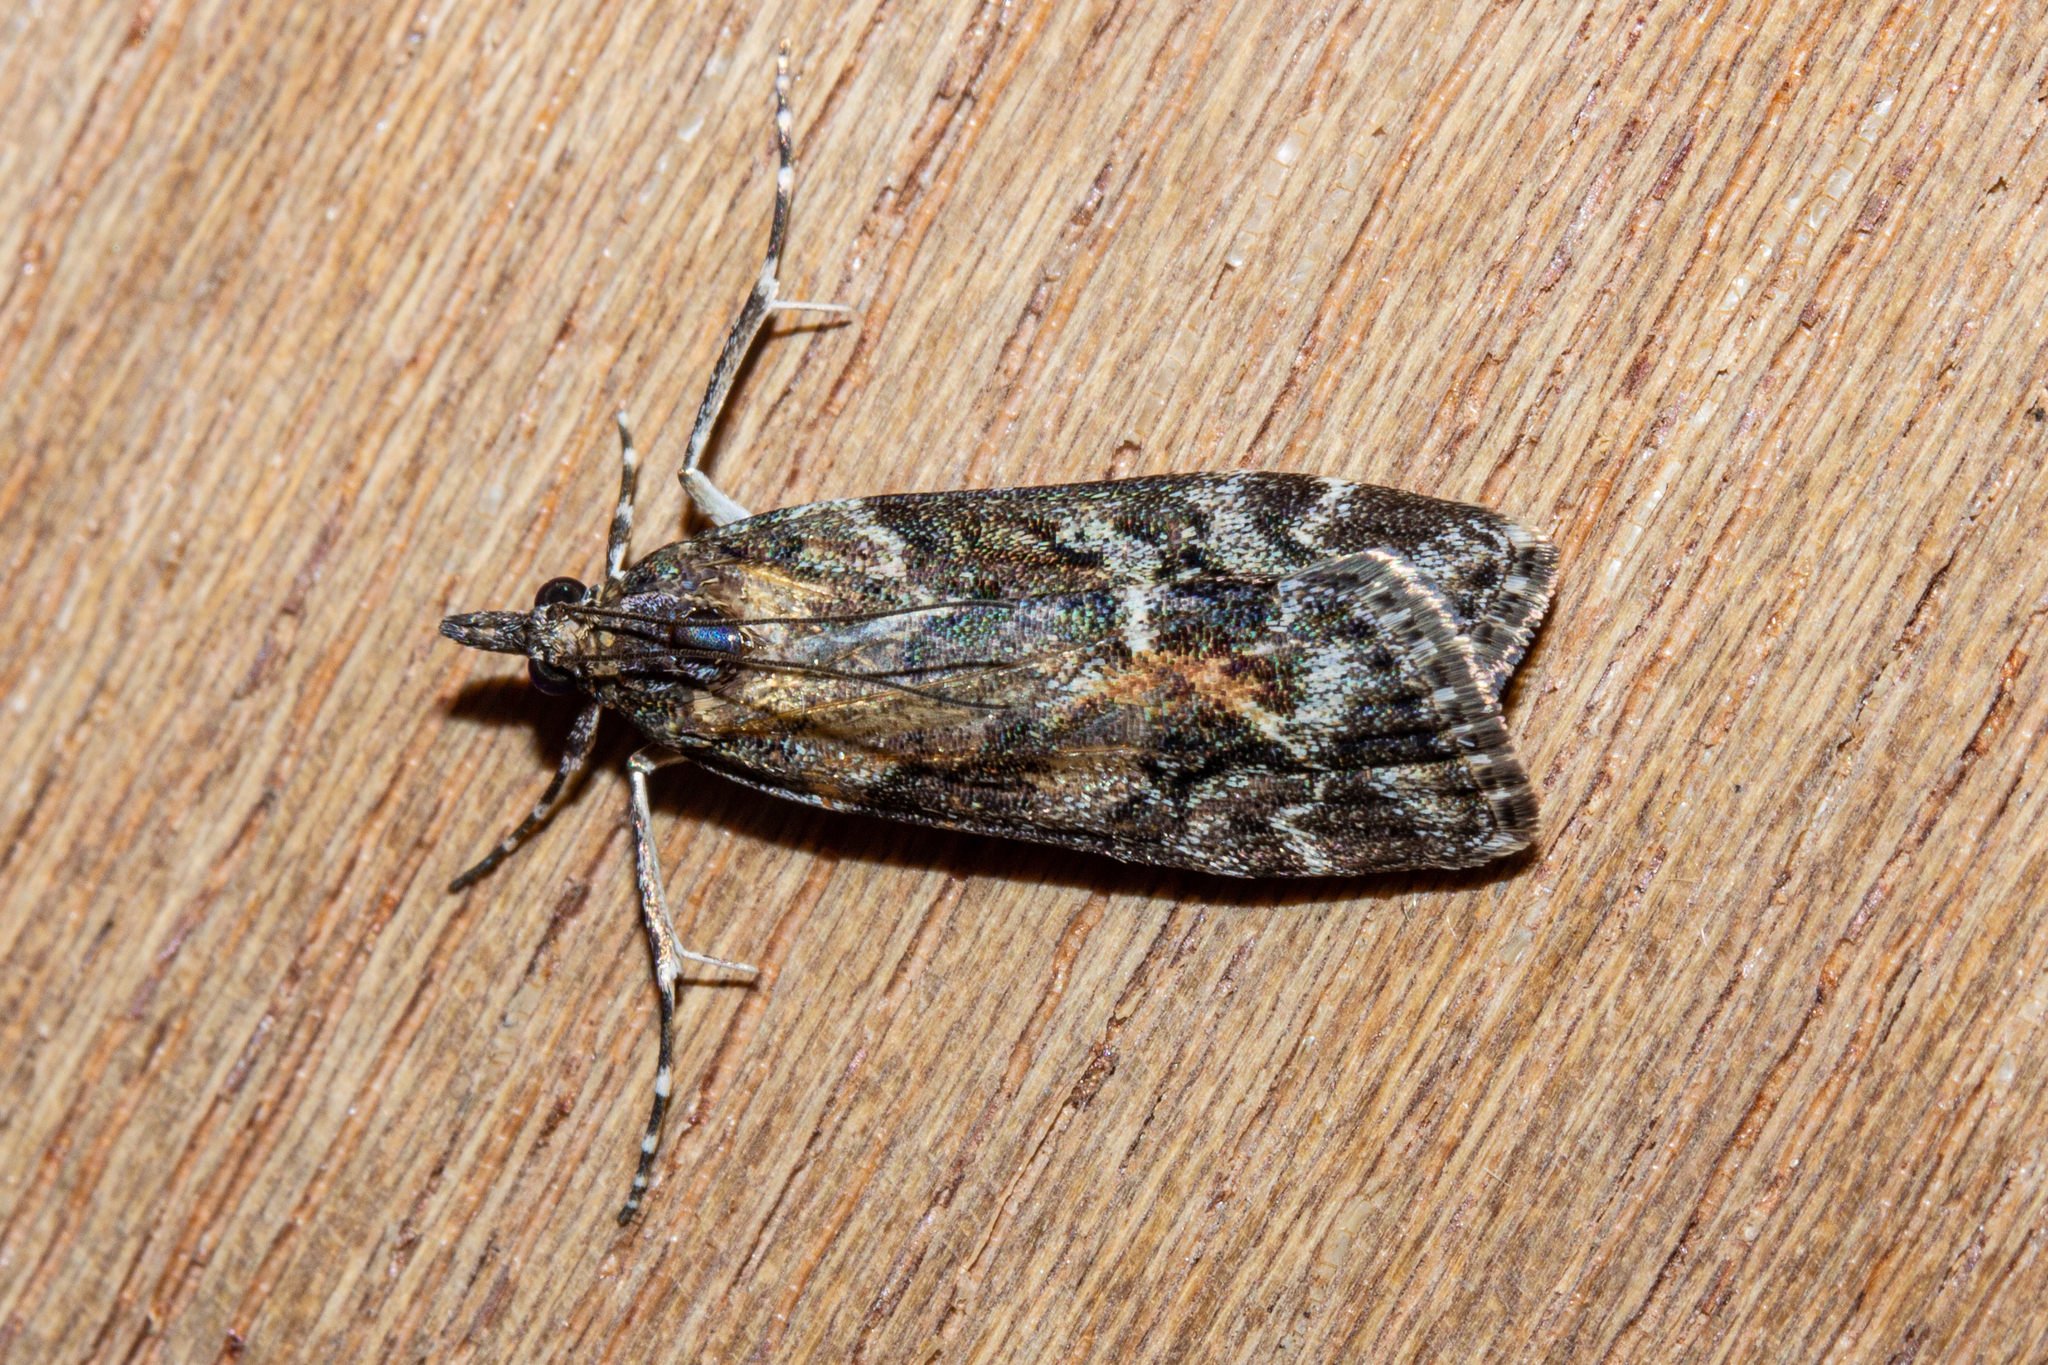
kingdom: Animalia
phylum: Arthropoda
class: Insecta
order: Lepidoptera
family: Crambidae
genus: Eudonia
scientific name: Eudonia submarginalis
